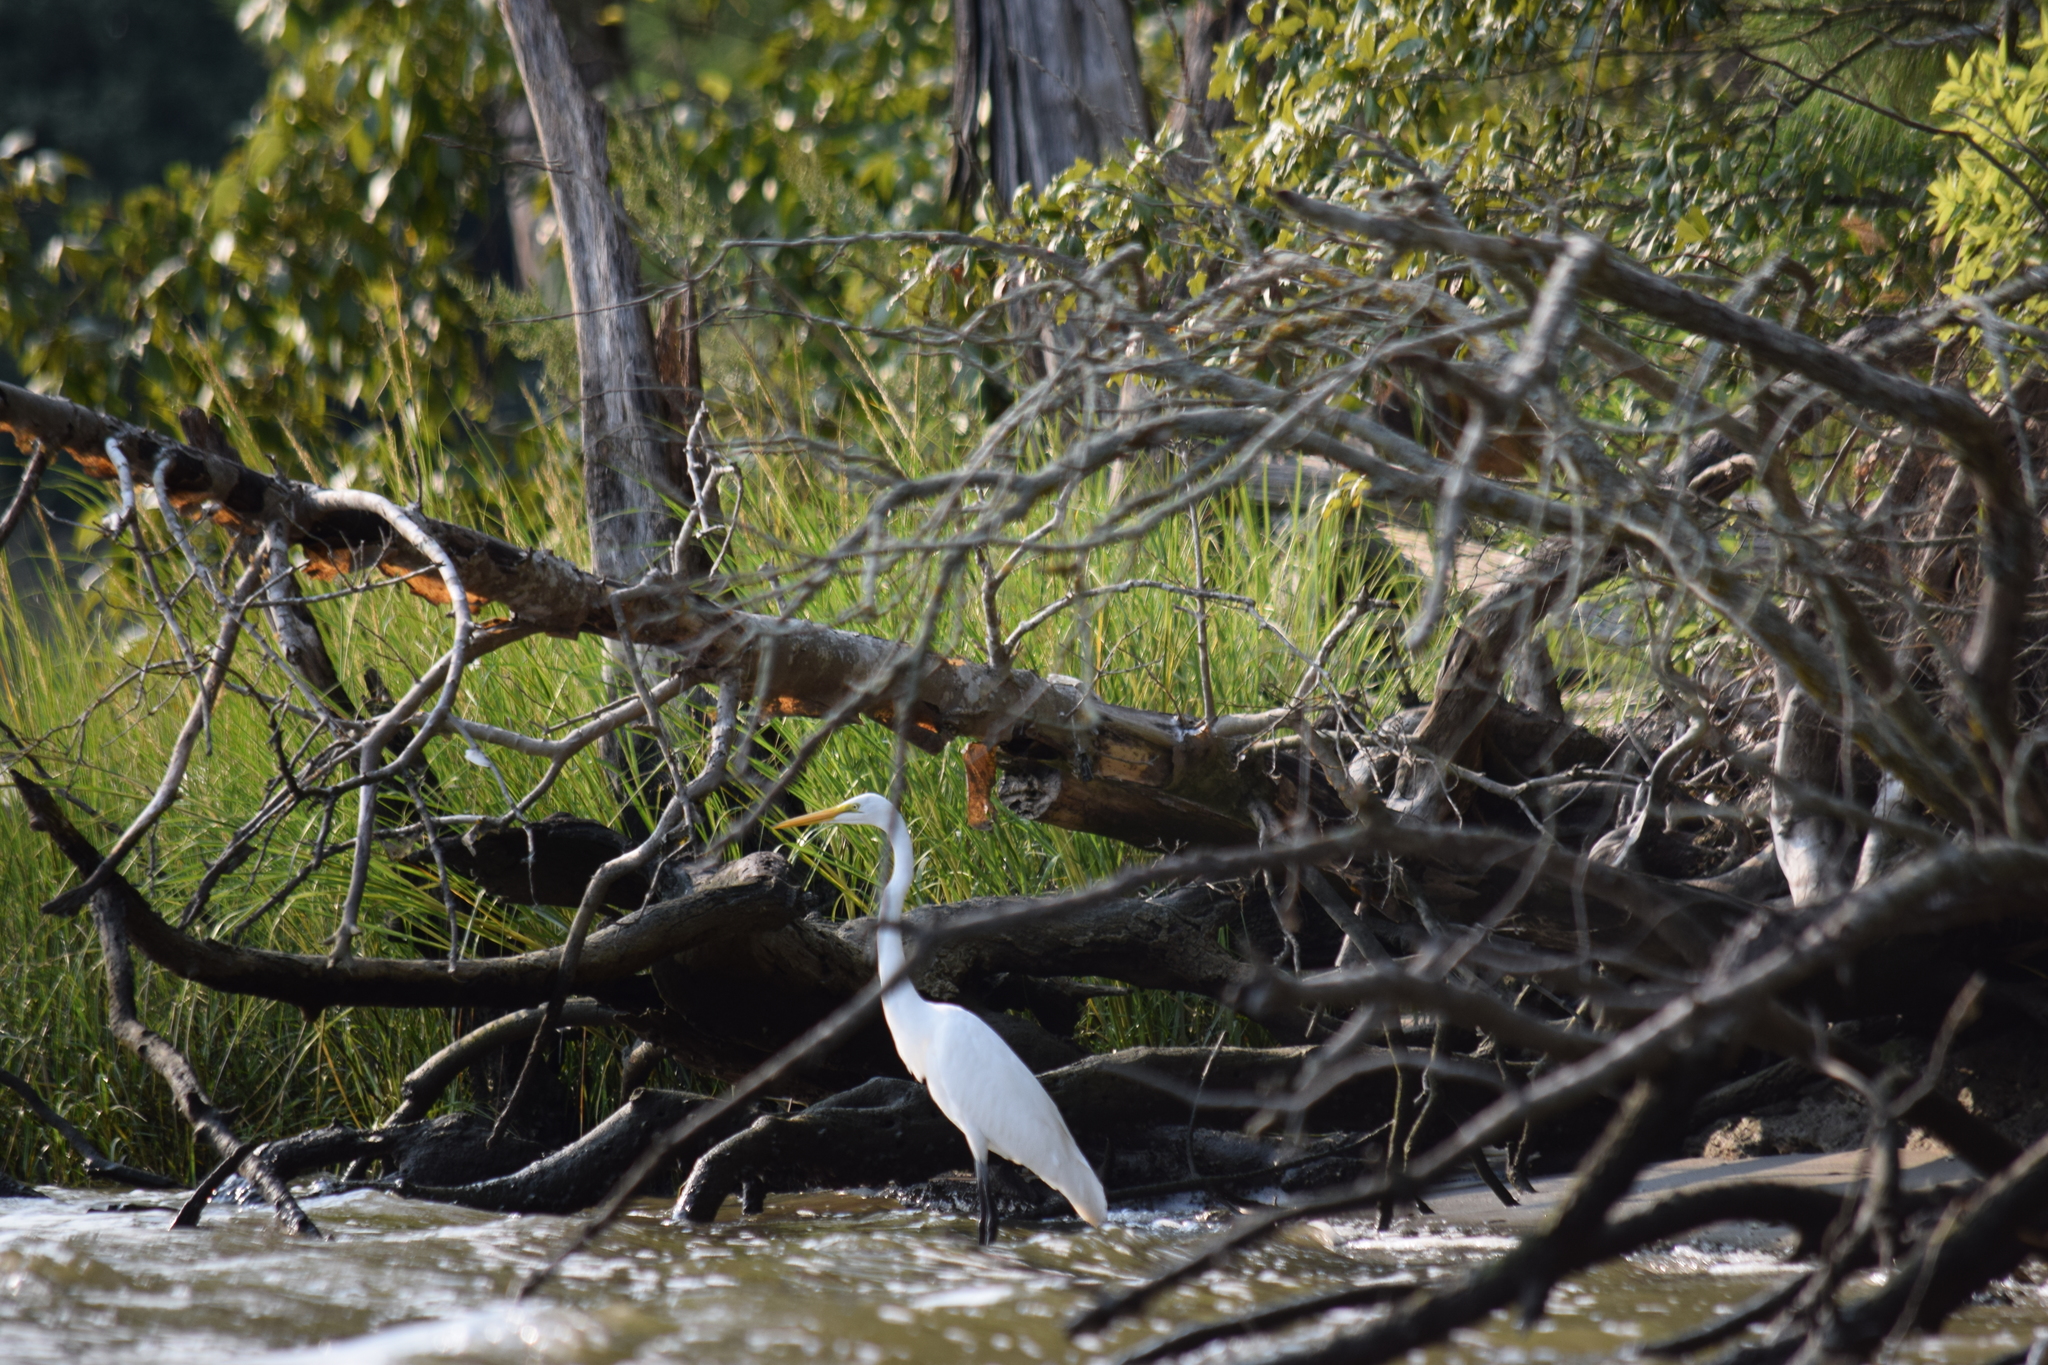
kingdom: Animalia
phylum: Chordata
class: Aves
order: Pelecaniformes
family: Ardeidae
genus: Ardea
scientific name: Ardea alba
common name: Great egret
